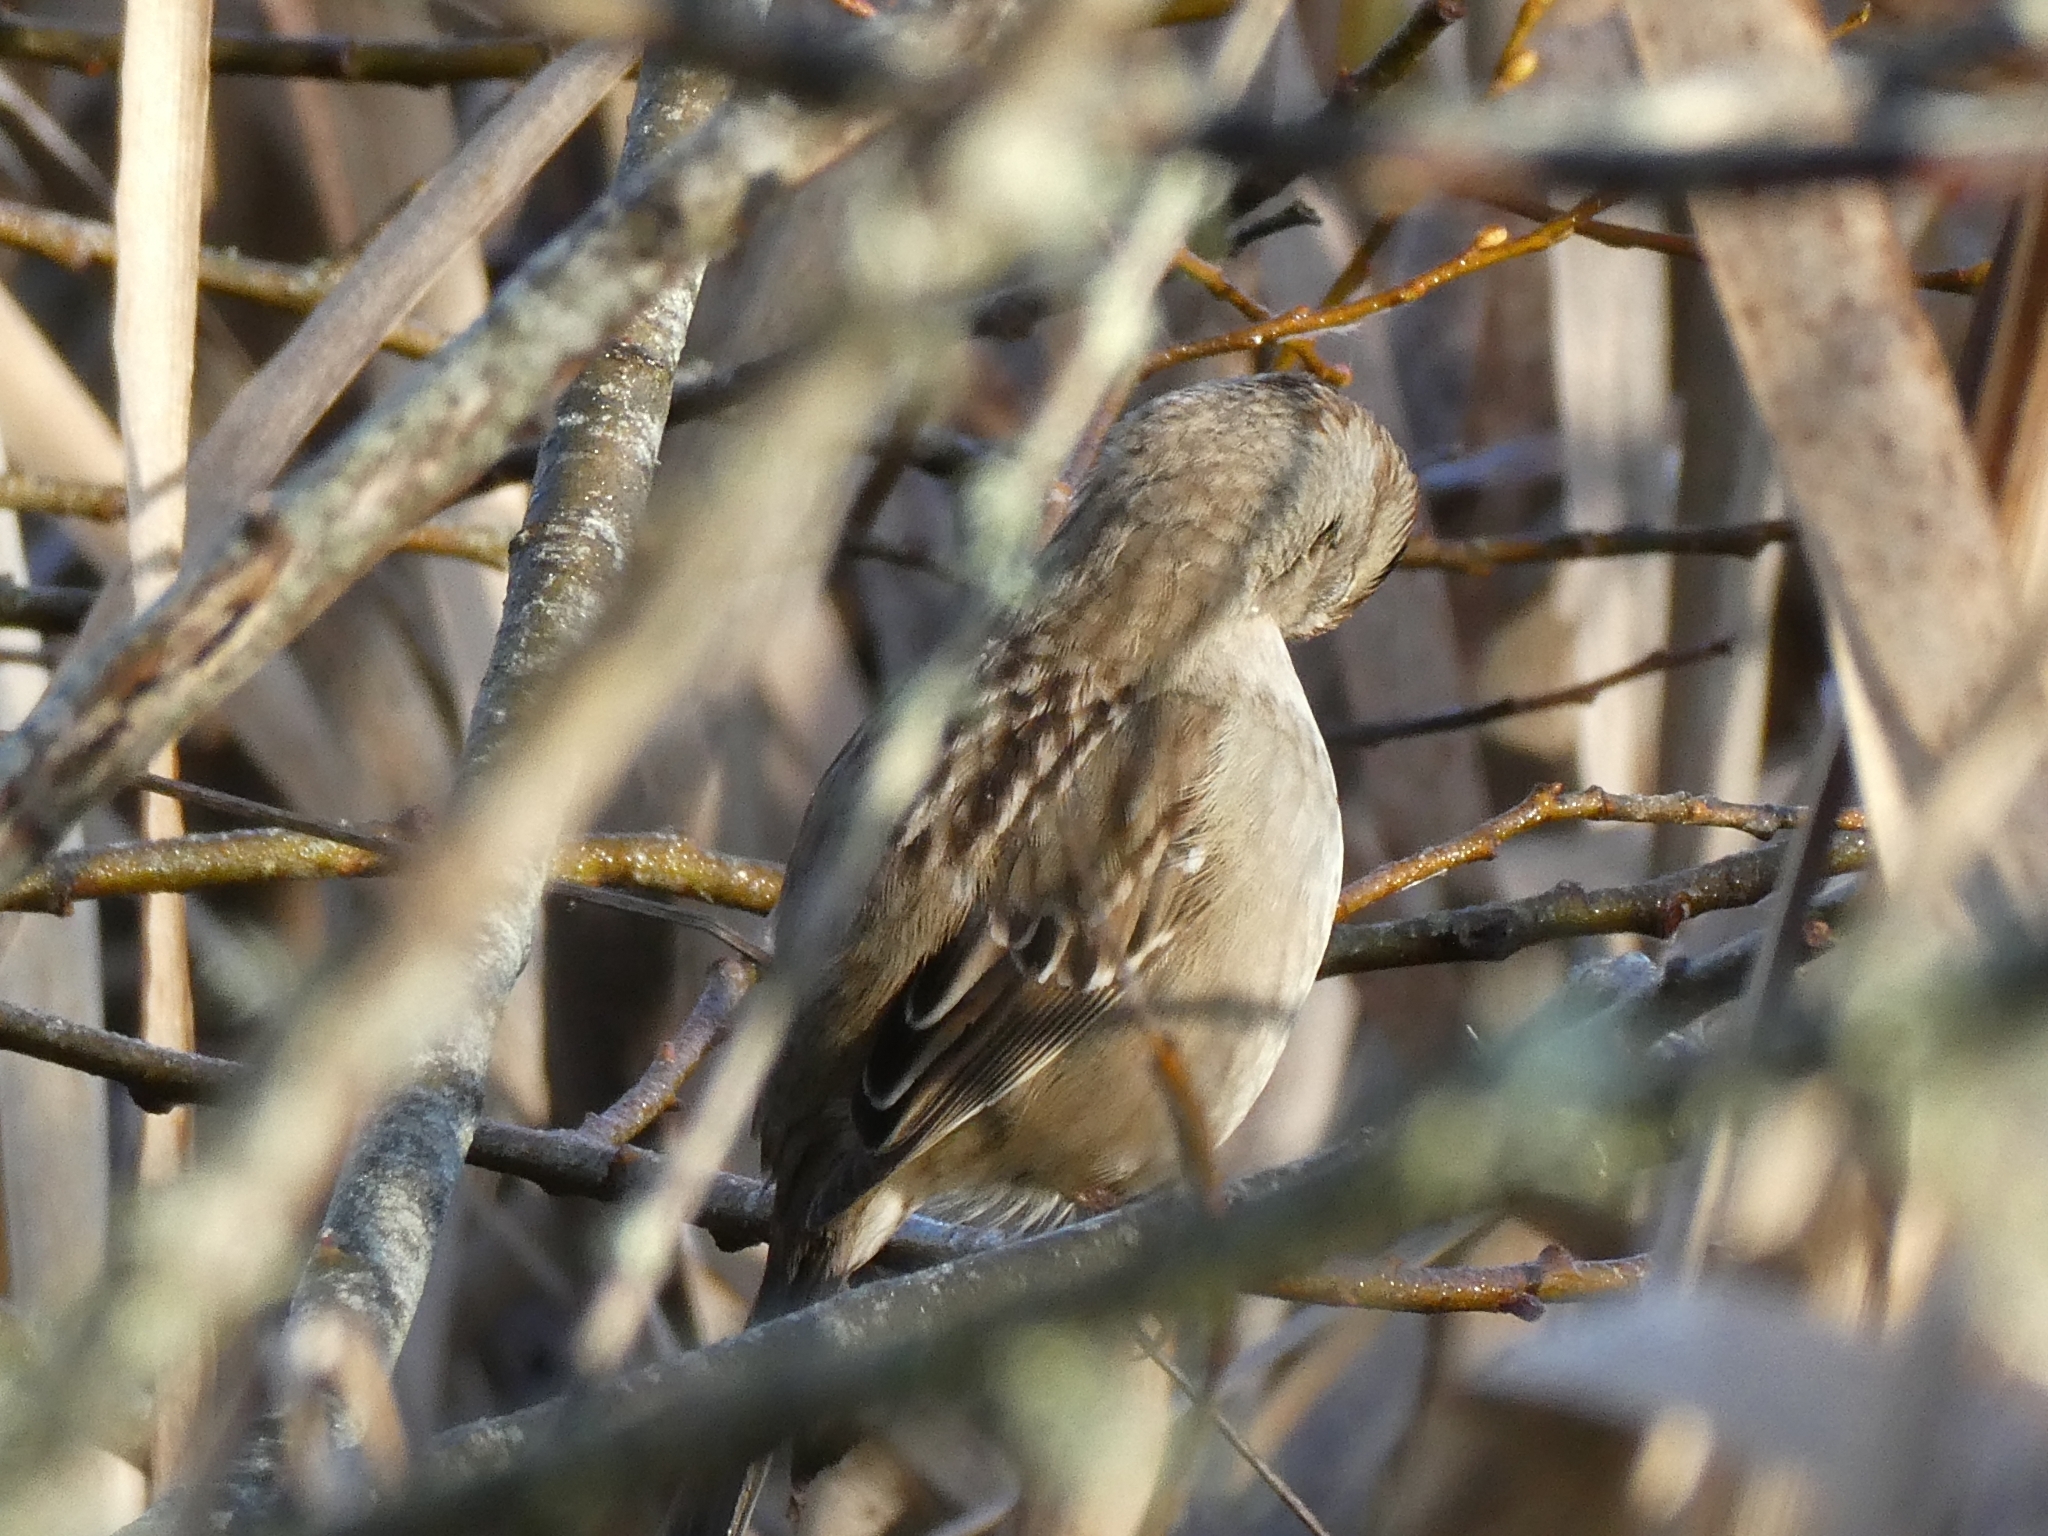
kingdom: Animalia
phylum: Chordata
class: Aves
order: Passeriformes
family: Passerellidae
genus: Zonotrichia
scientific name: Zonotrichia leucophrys
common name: White-crowned sparrow
